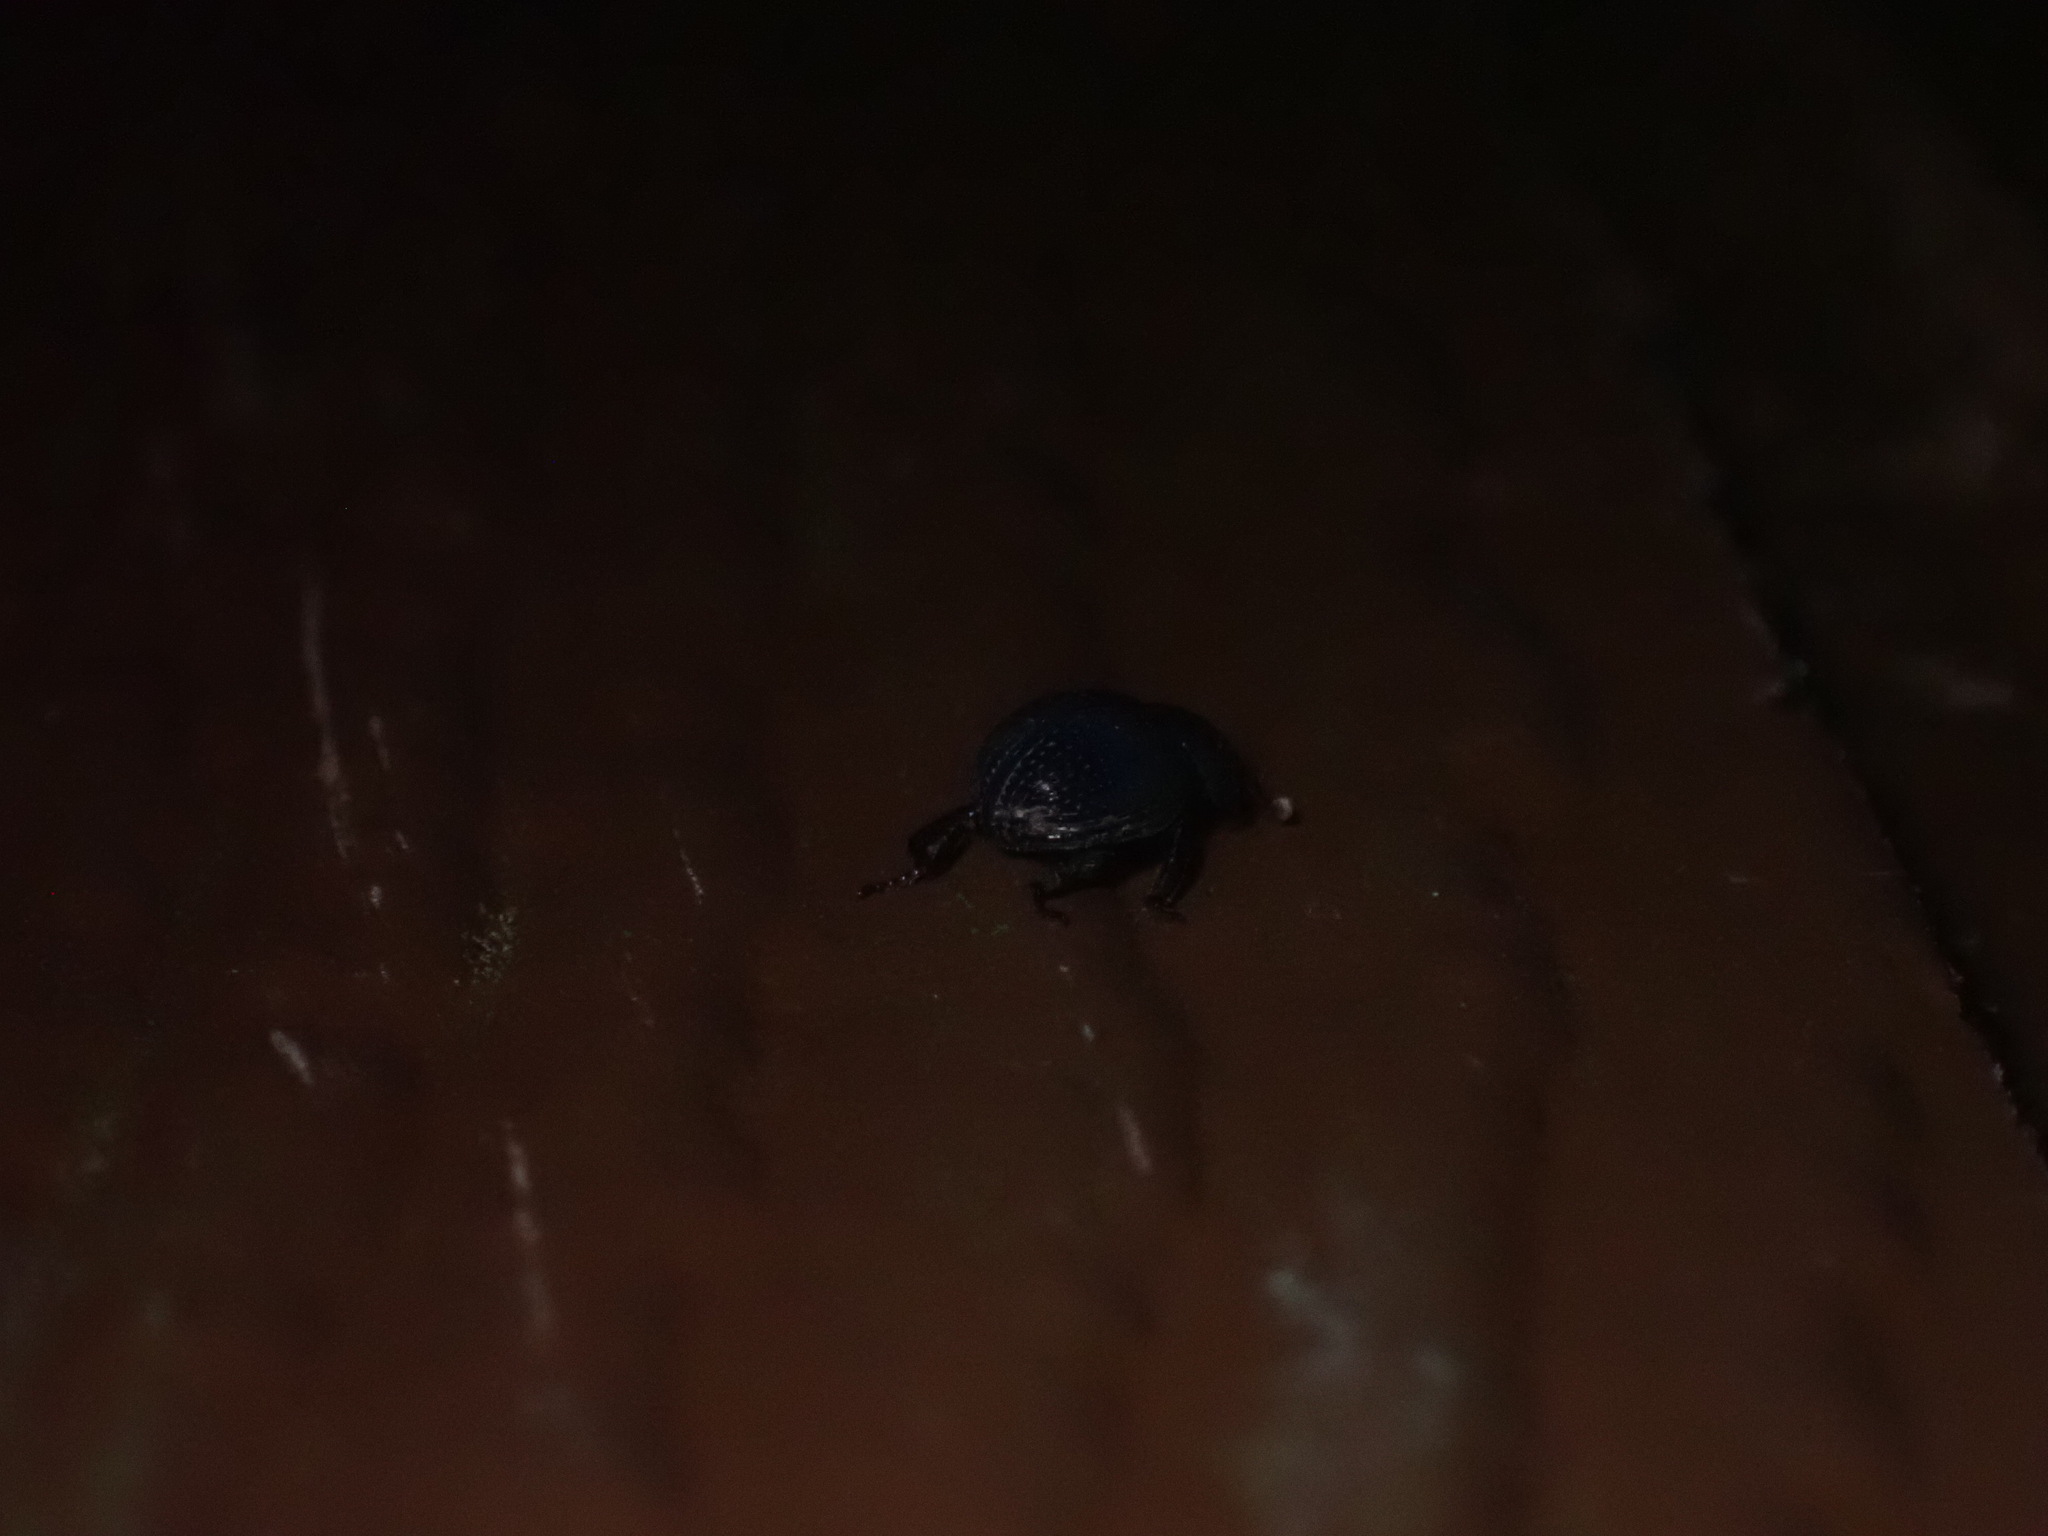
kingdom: Animalia
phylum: Arthropoda
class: Insecta
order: Coleoptera
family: Hybosoridae
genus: Germarostes
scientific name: Germarostes globosus
